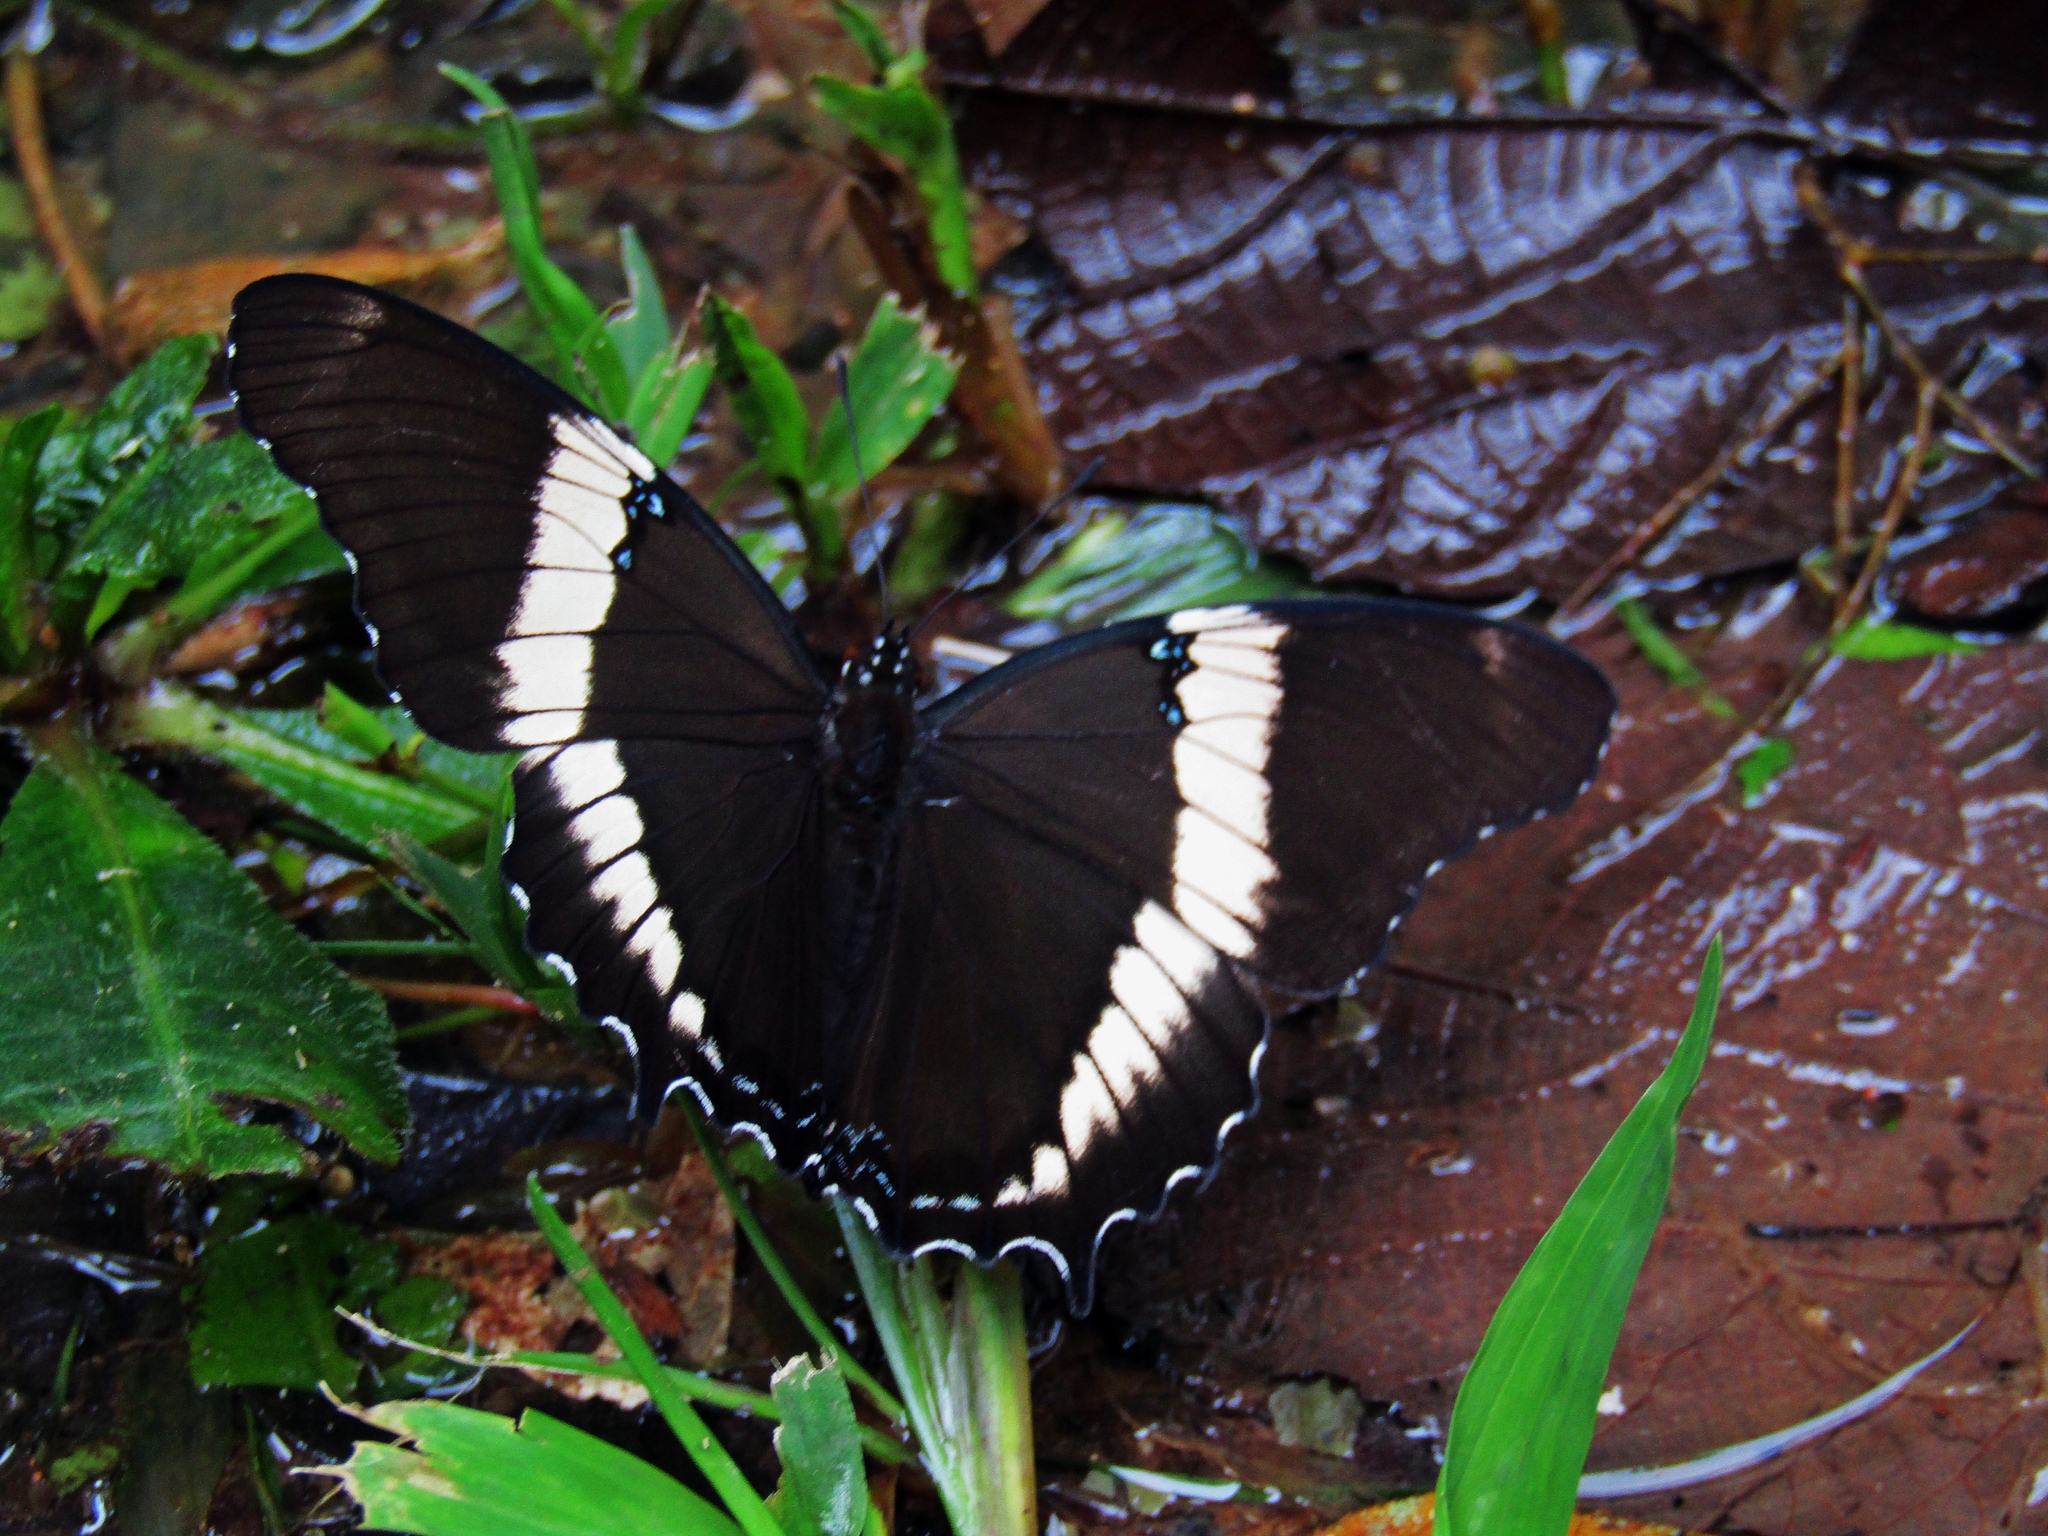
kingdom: Animalia
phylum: Arthropoda
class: Insecta
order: Lepidoptera
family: Nymphalidae
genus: Siproeta
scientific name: Siproeta epaphus
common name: Rusty-tipped page
